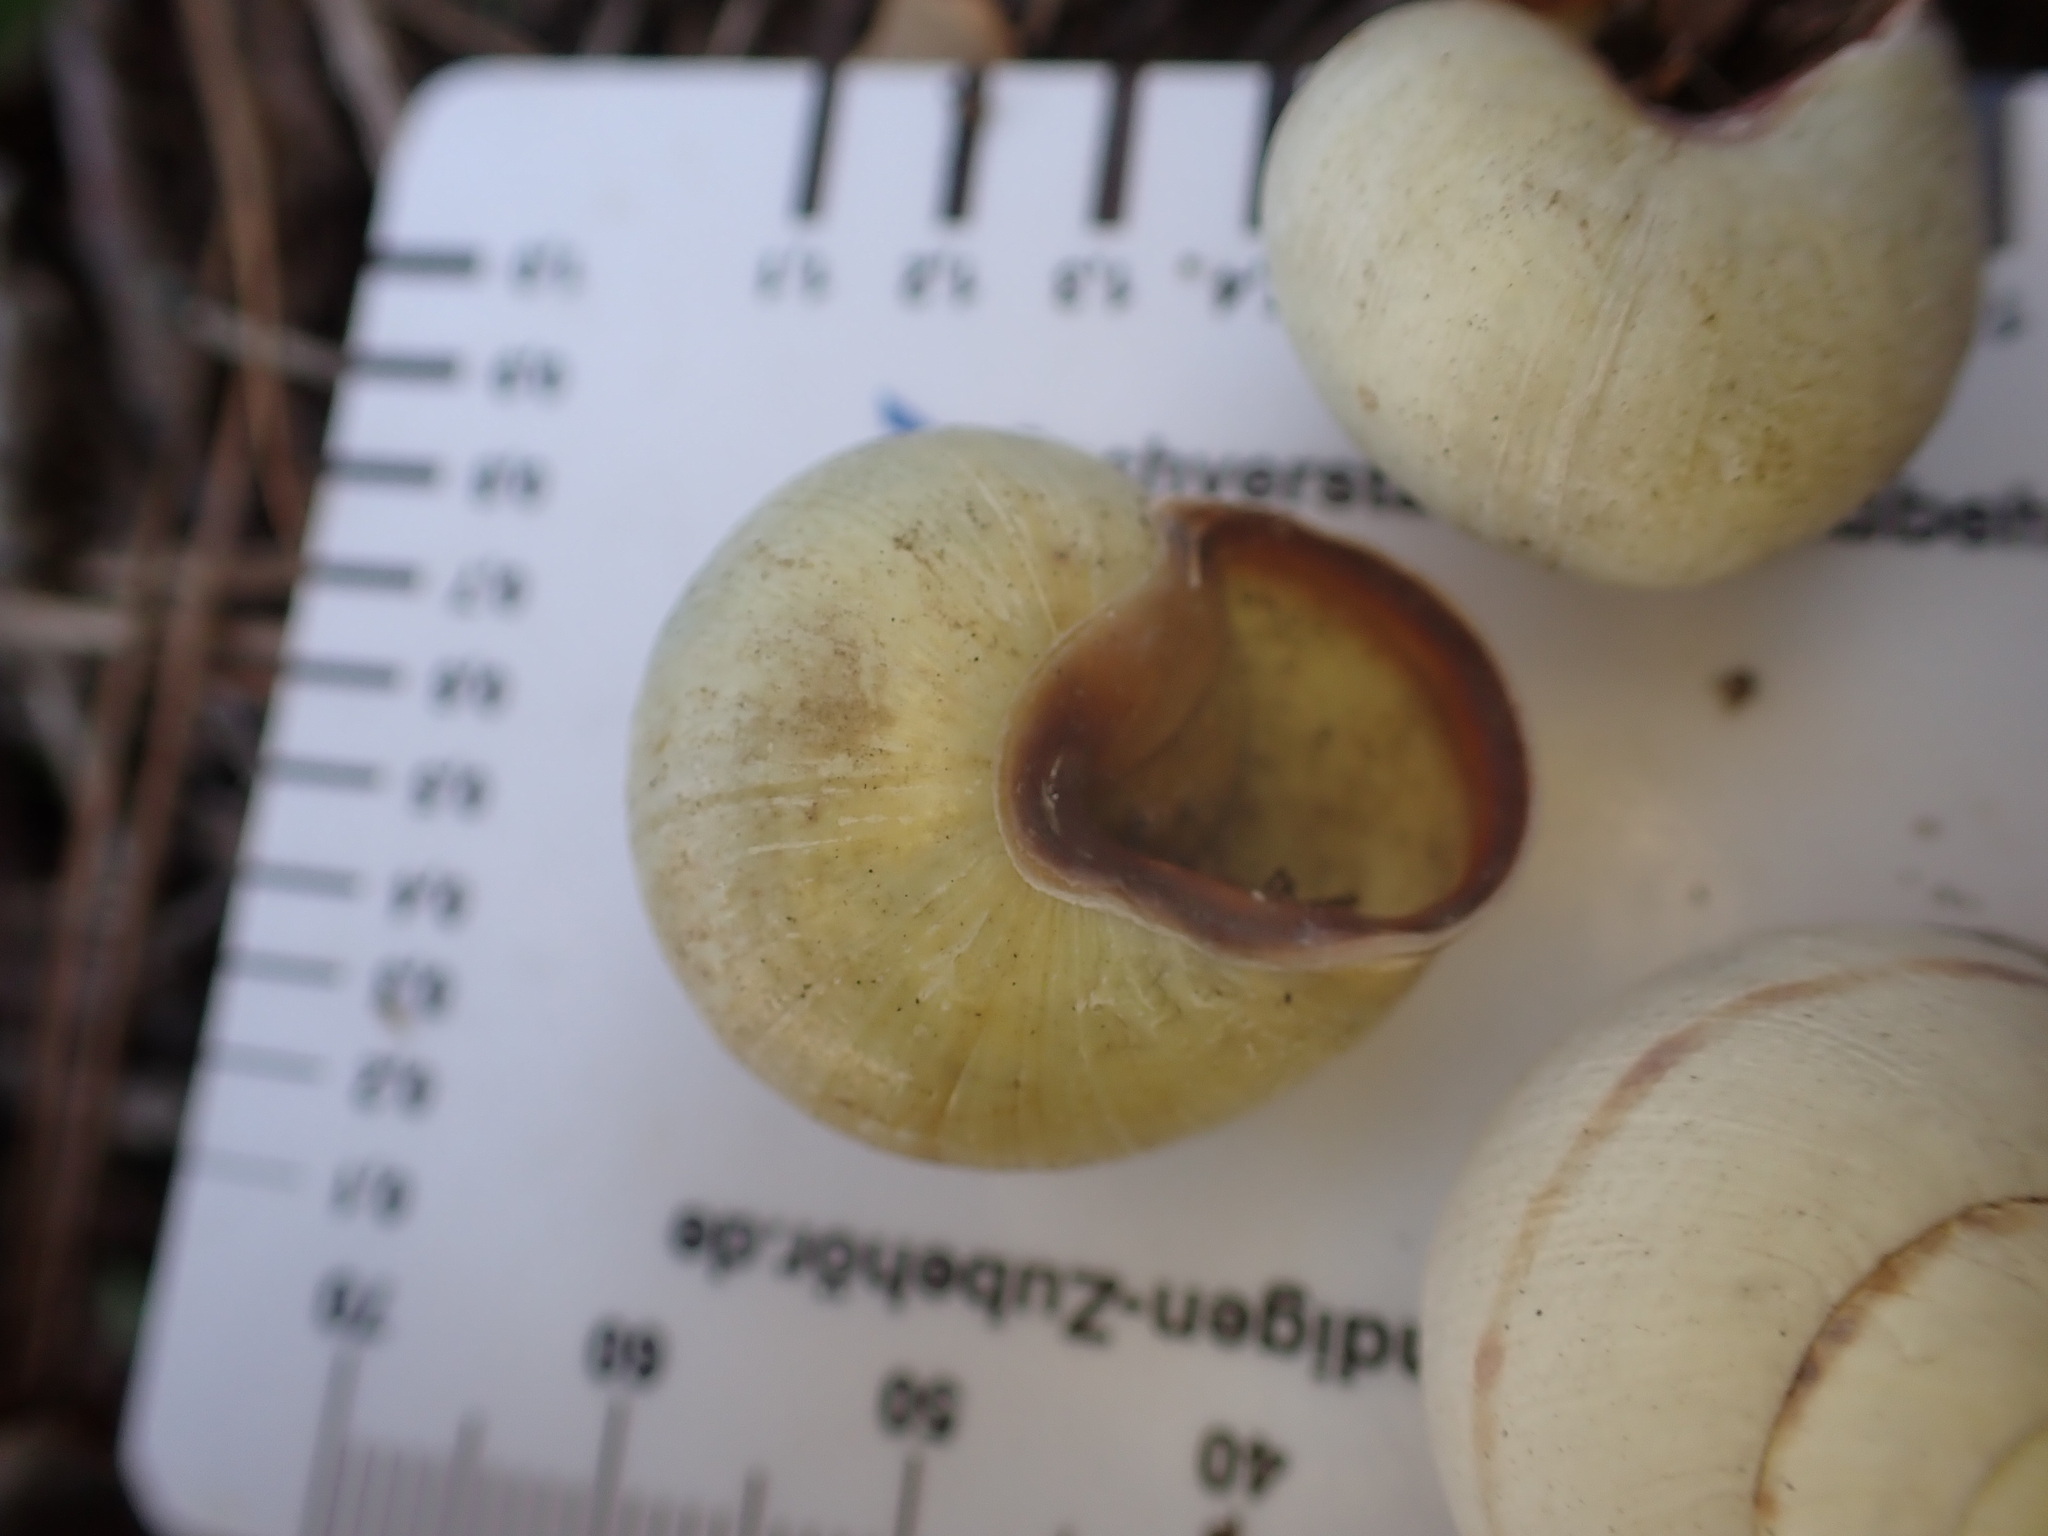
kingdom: Animalia
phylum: Mollusca
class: Gastropoda
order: Stylommatophora
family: Helicidae
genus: Cepaea
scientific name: Cepaea nemoralis
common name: Grovesnail
